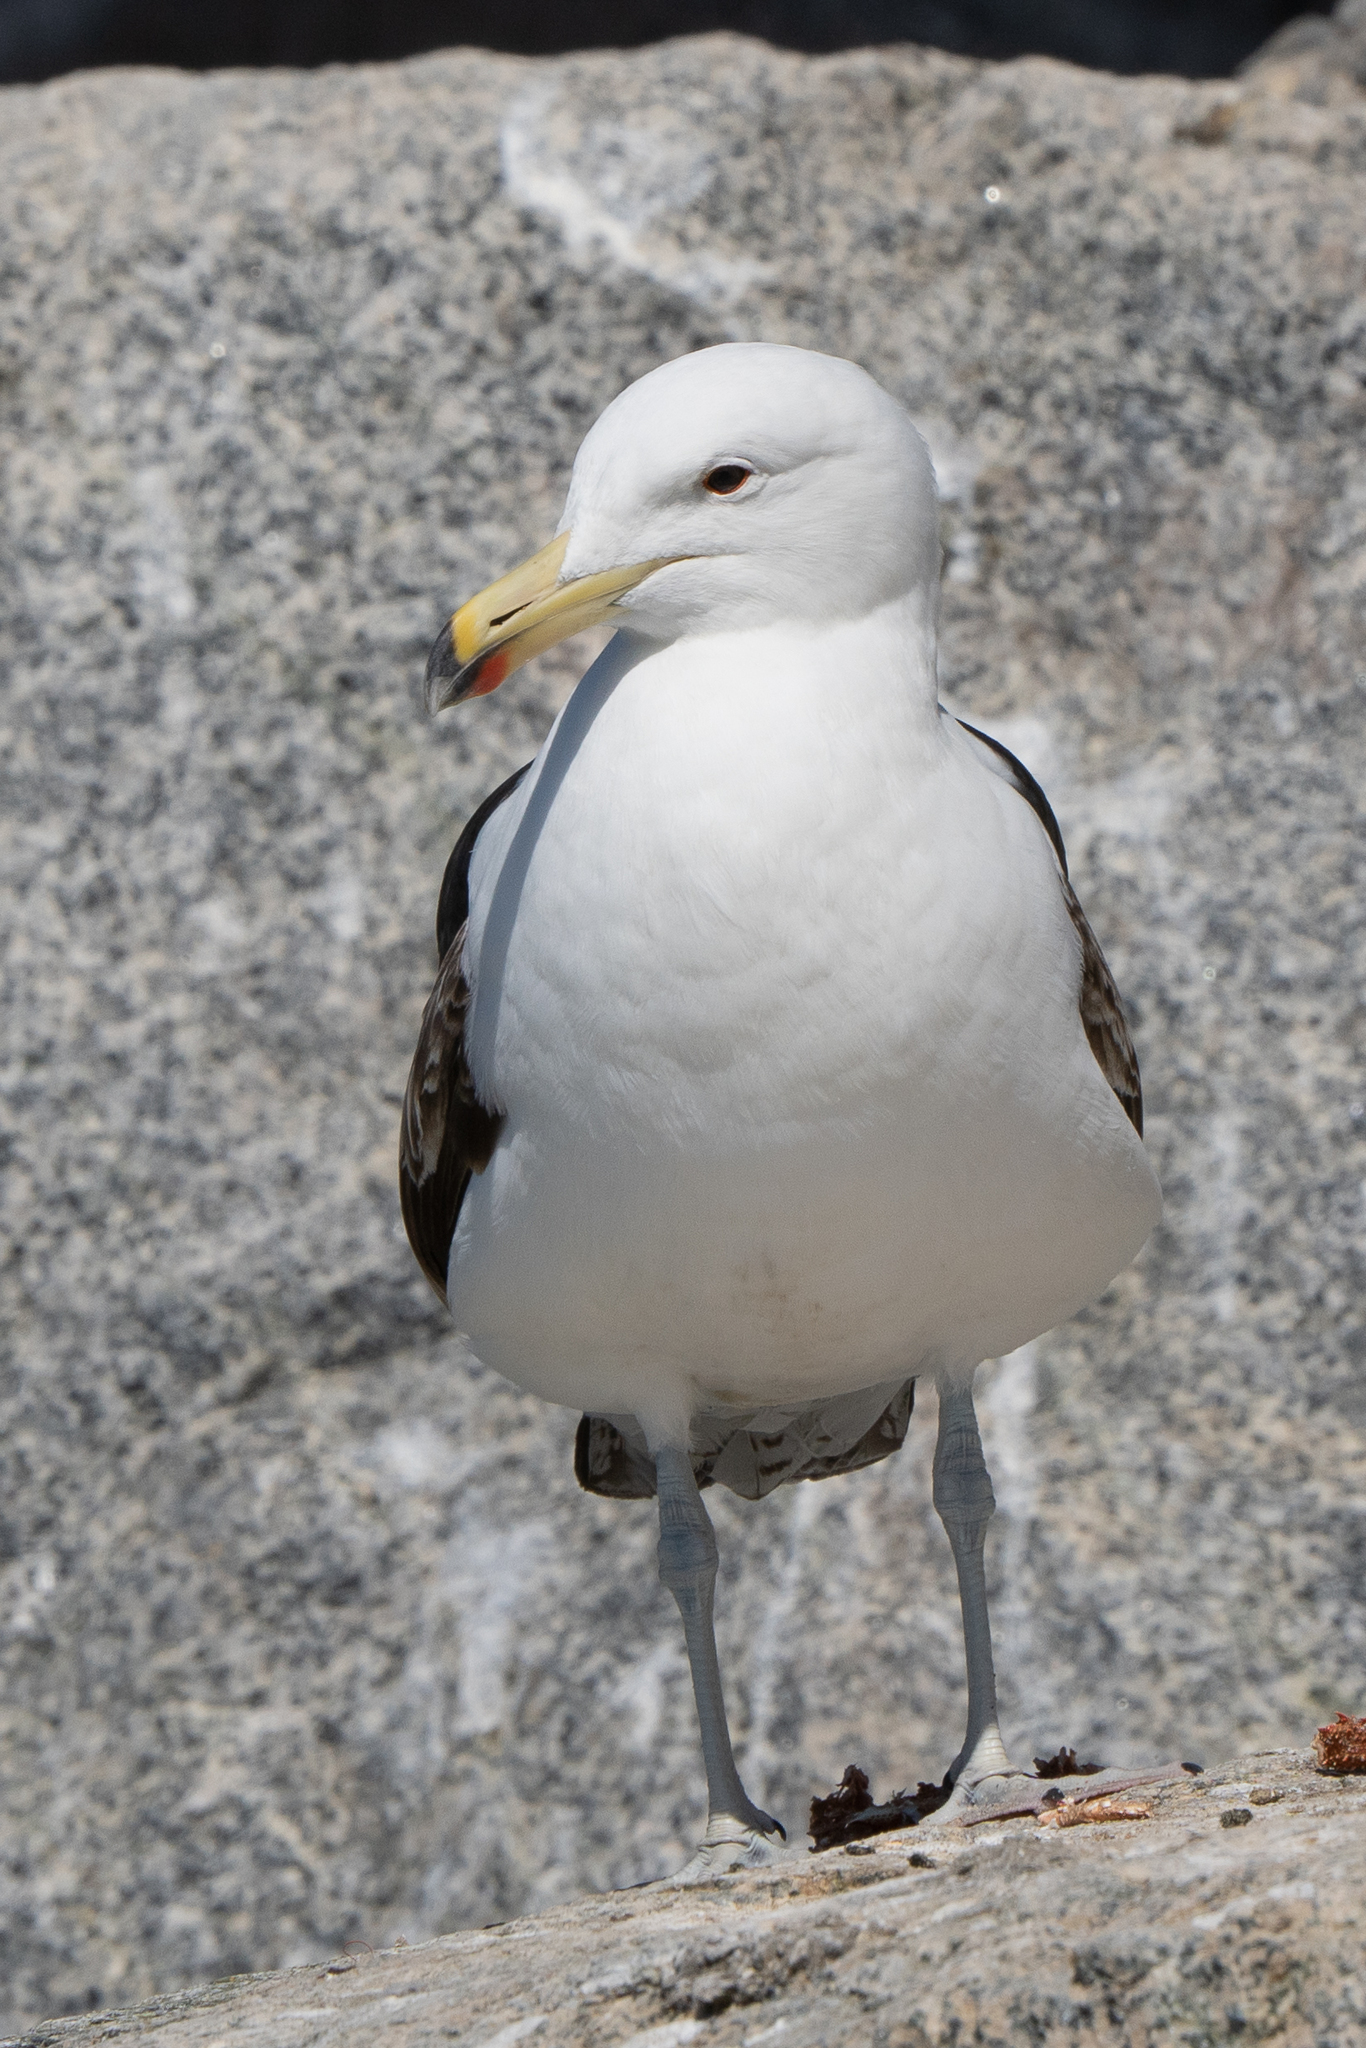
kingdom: Animalia
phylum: Chordata
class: Aves
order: Charadriiformes
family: Laridae
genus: Larus
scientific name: Larus dominicanus
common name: Kelp gull
